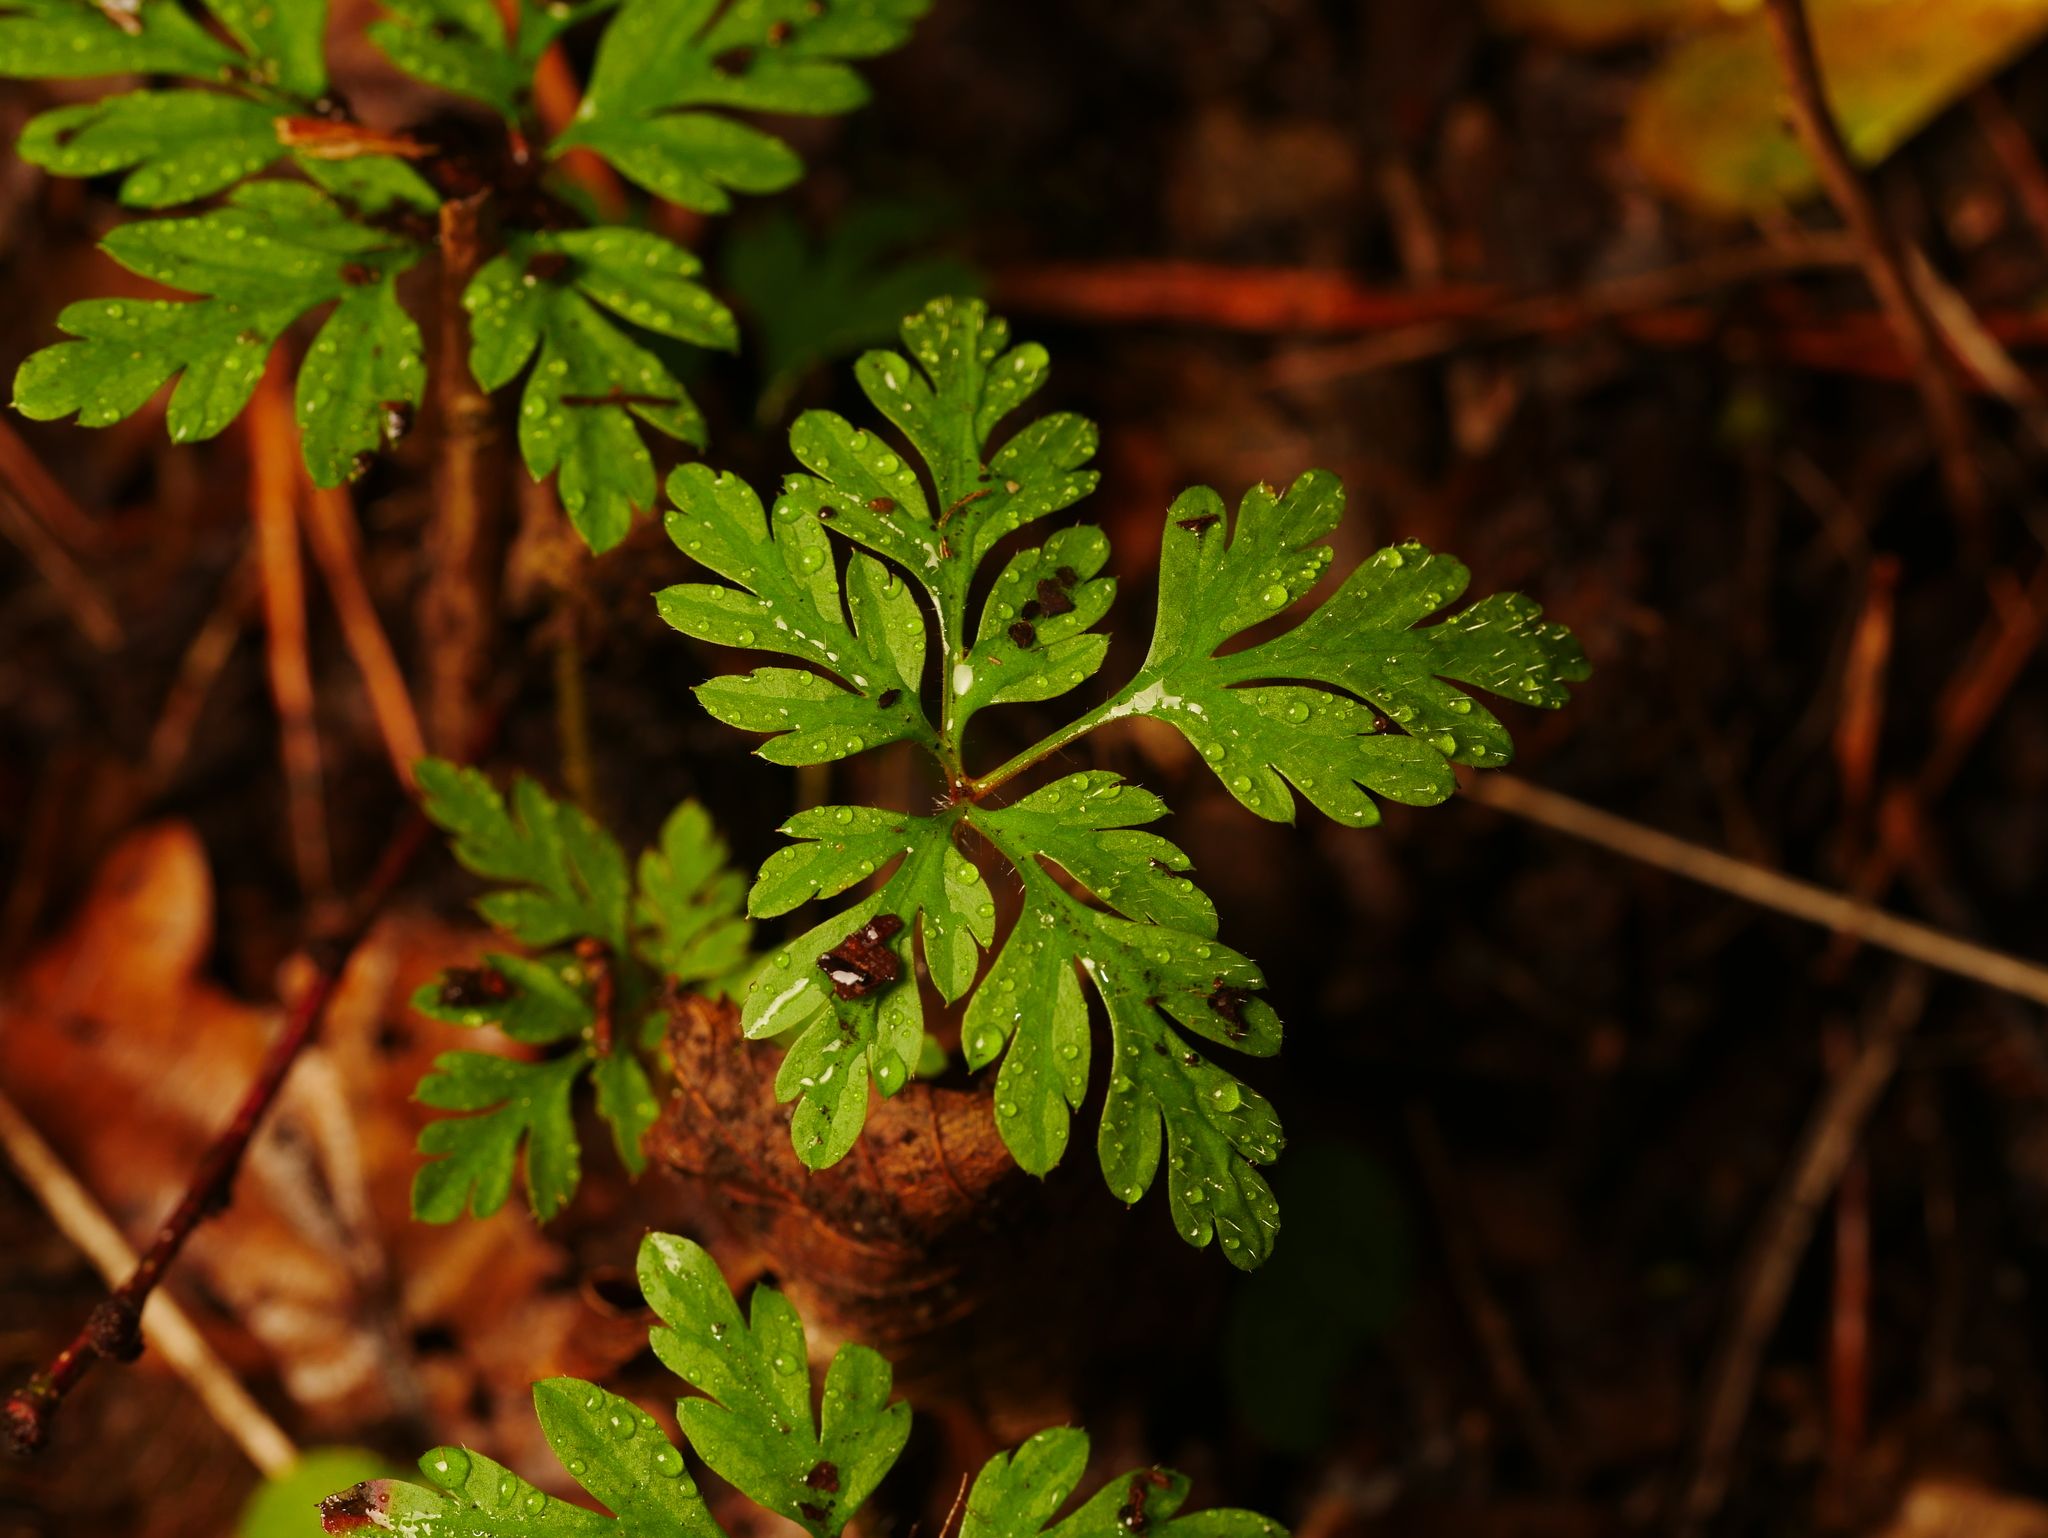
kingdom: Plantae
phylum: Tracheophyta
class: Magnoliopsida
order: Geraniales
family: Geraniaceae
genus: Geranium
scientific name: Geranium robertianum
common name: Herb-robert
